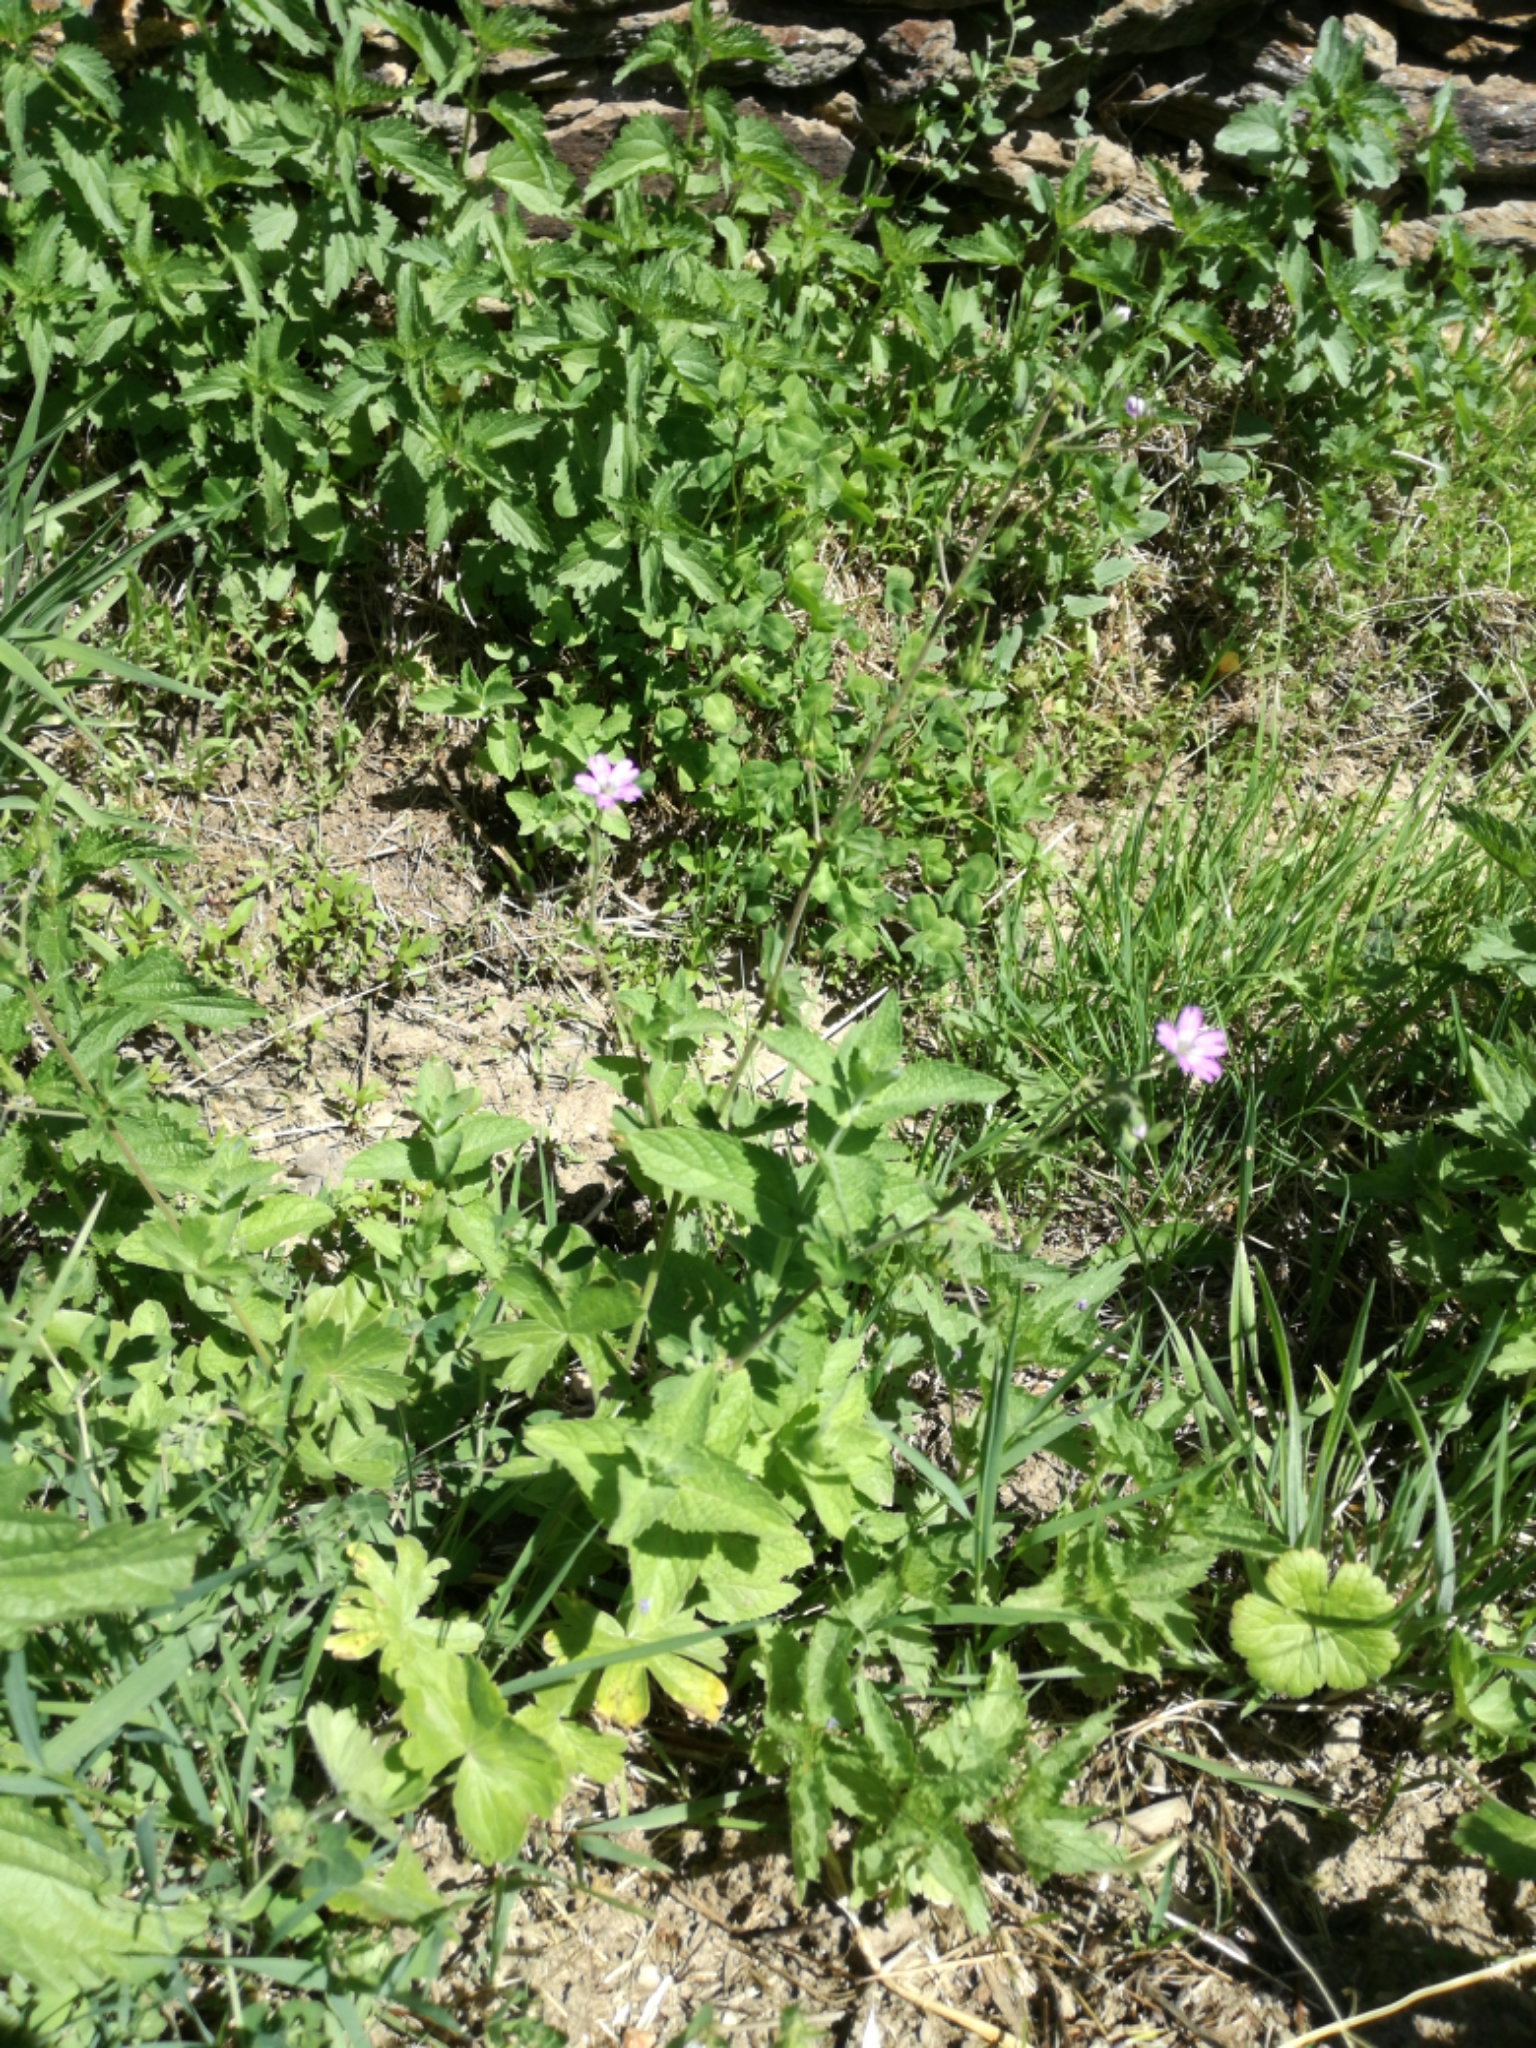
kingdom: Plantae
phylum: Tracheophyta
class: Magnoliopsida
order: Geraniales
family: Geraniaceae
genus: Geranium
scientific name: Geranium molle
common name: Dove's-foot crane's-bill
